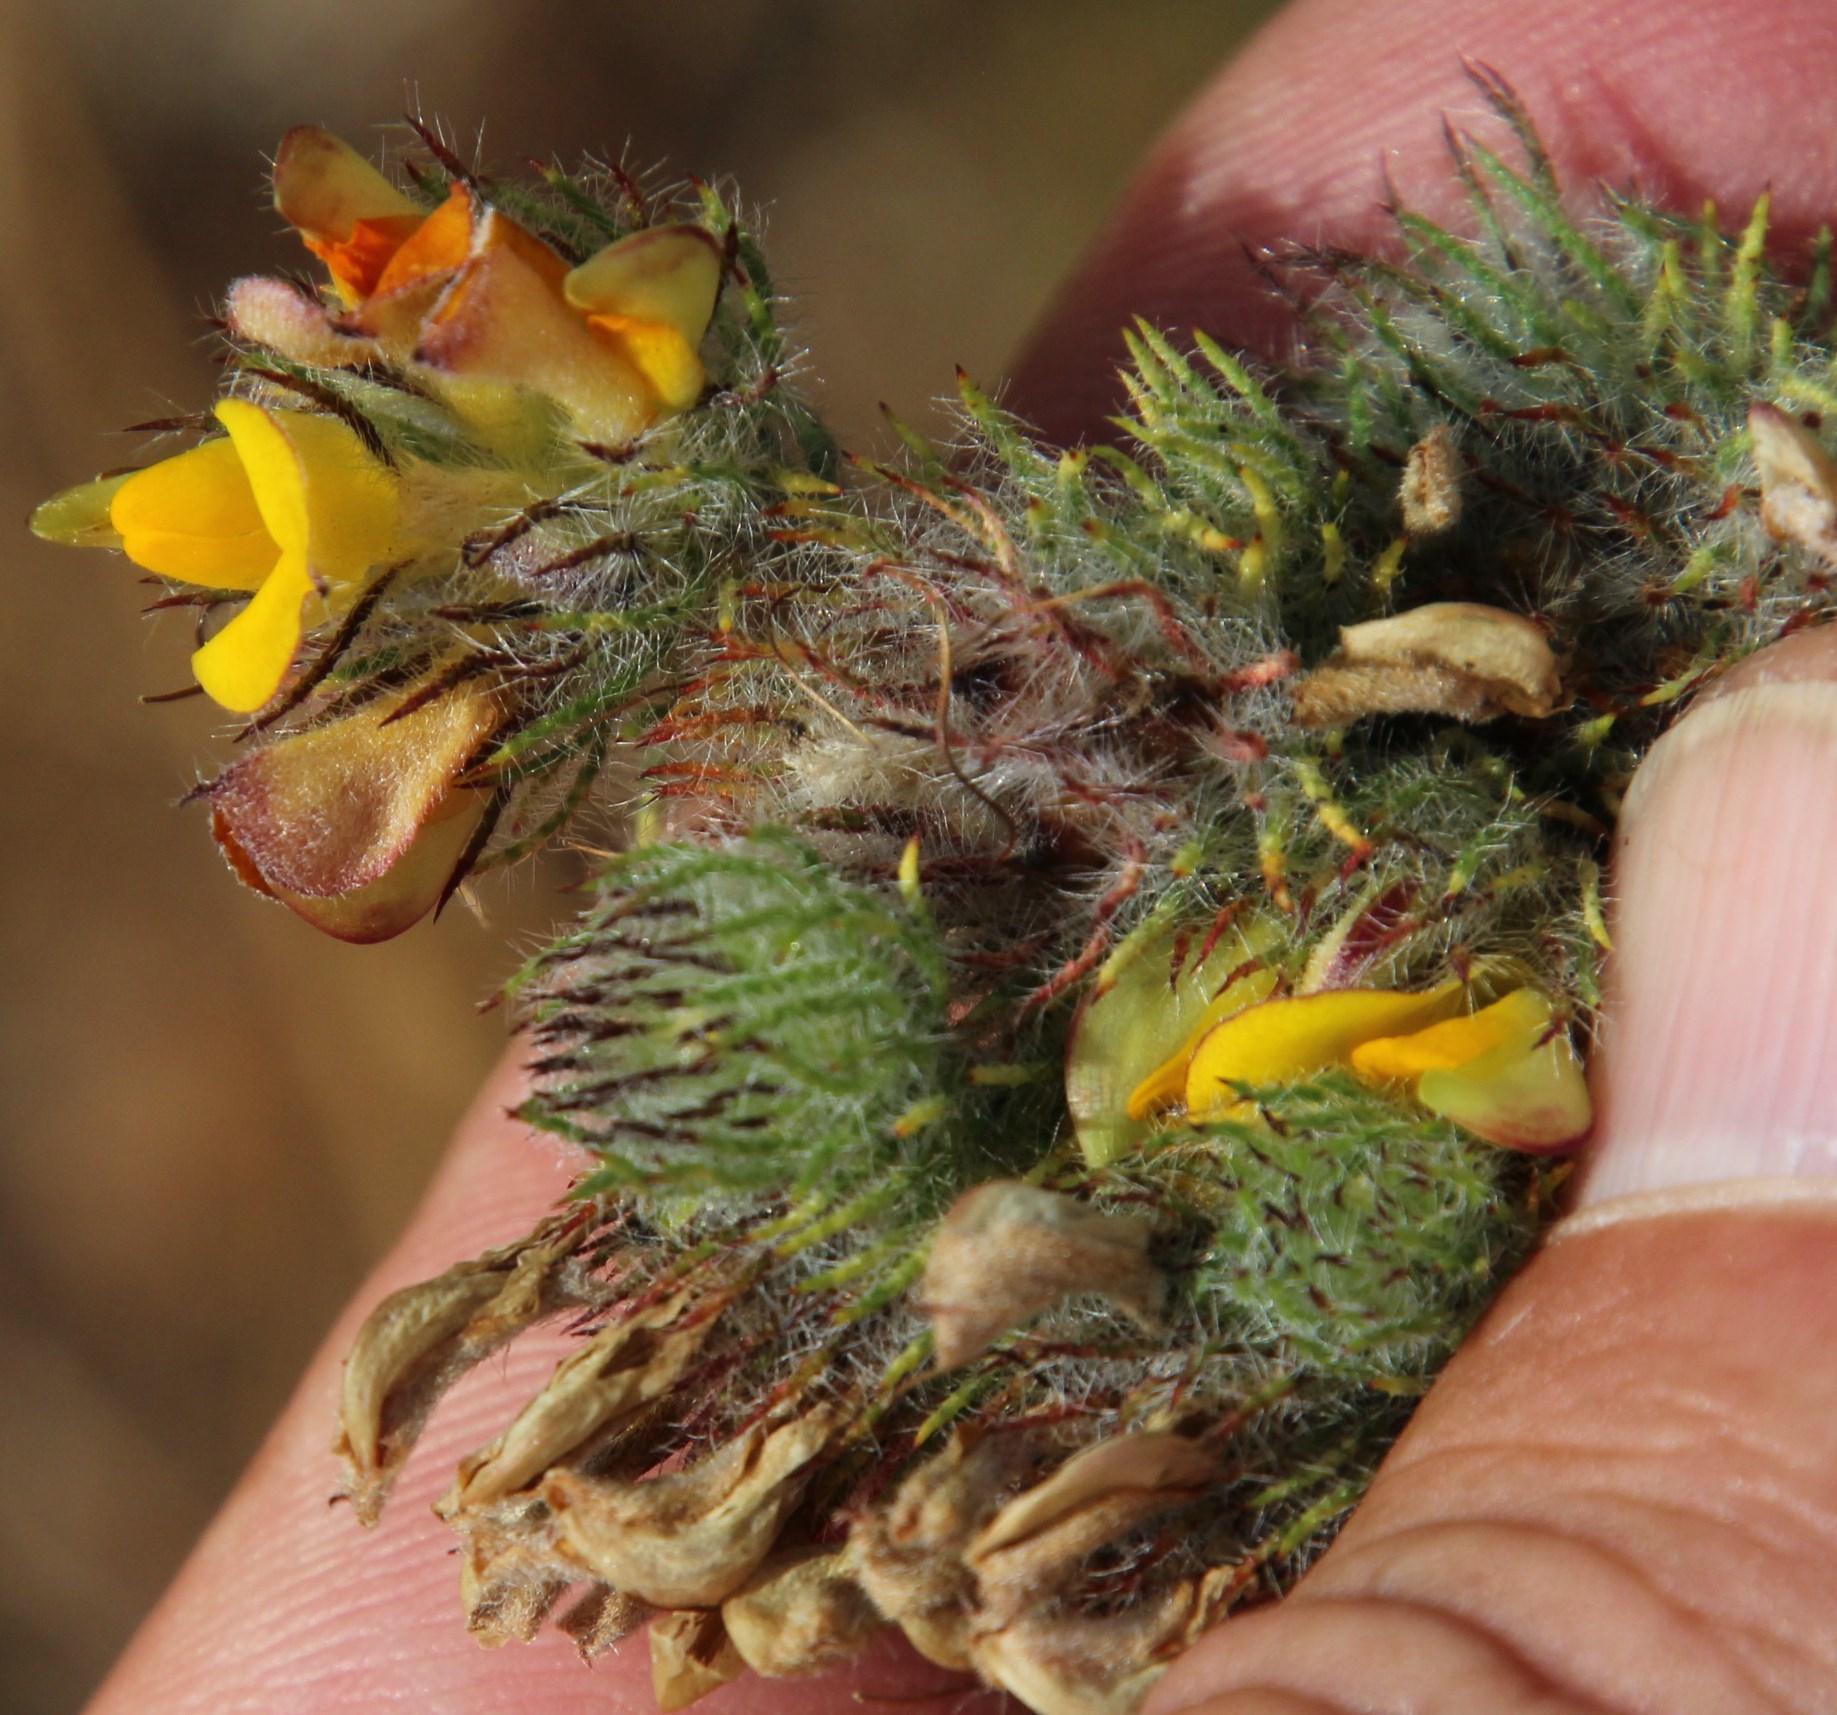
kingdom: Plantae
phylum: Tracheophyta
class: Magnoliopsida
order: Fabales
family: Fabaceae
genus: Aspalathus
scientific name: Aspalathus rubiginosa
